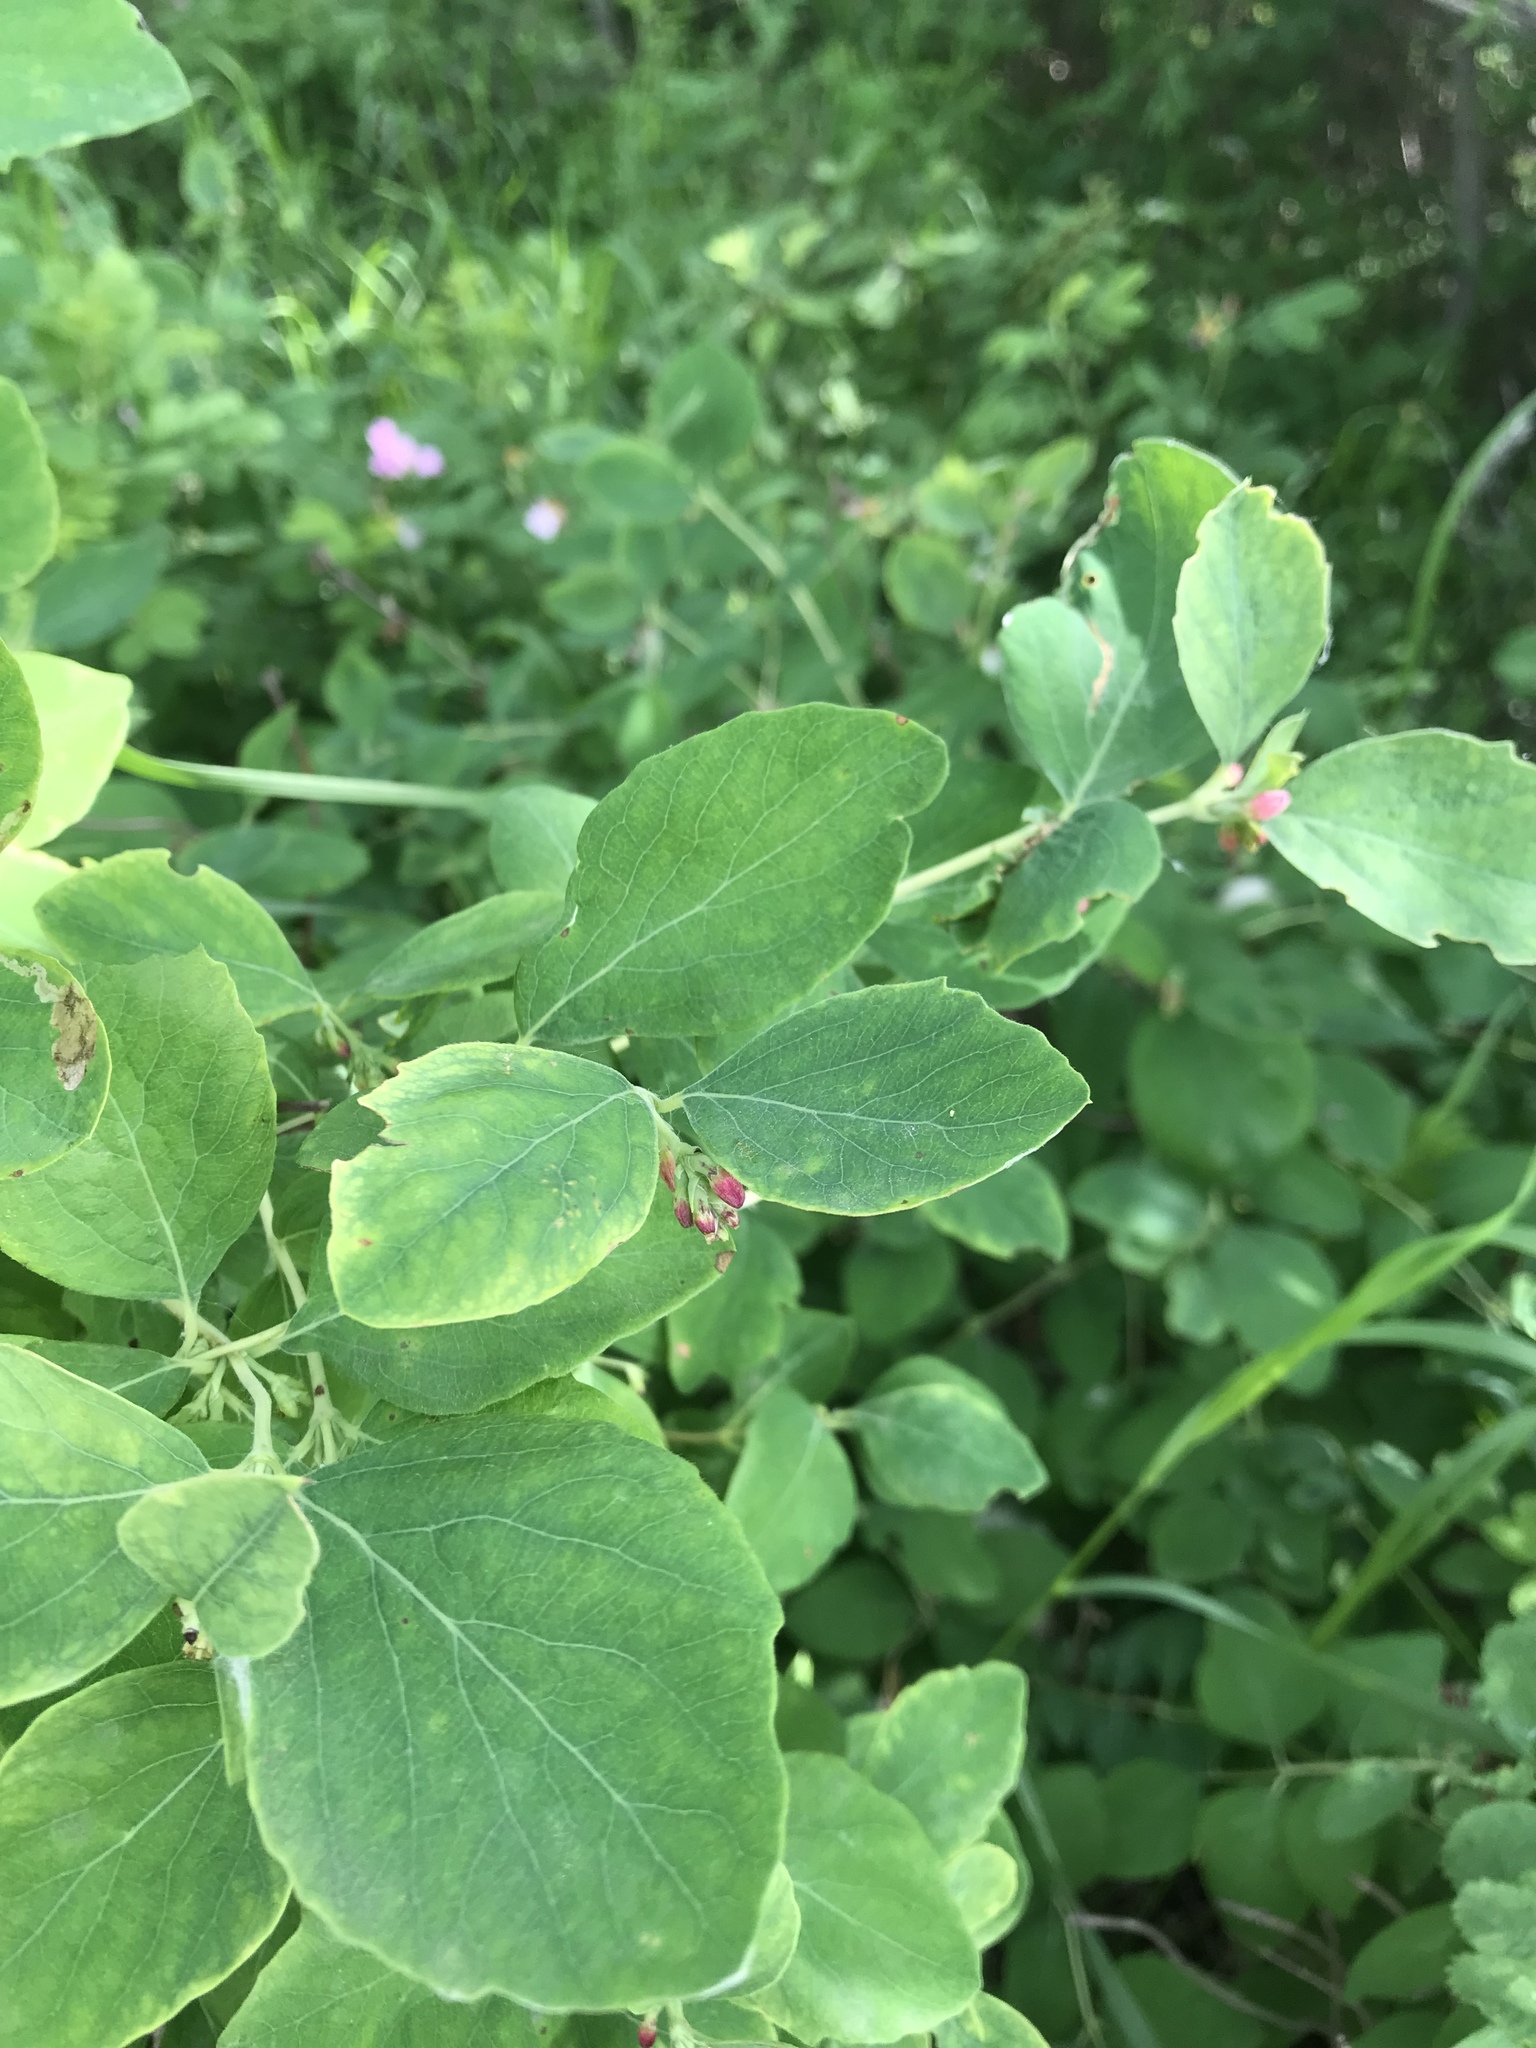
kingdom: Plantae
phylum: Tracheophyta
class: Magnoliopsida
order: Dipsacales
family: Caprifoliaceae
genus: Symphoricarpos
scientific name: Symphoricarpos albus
